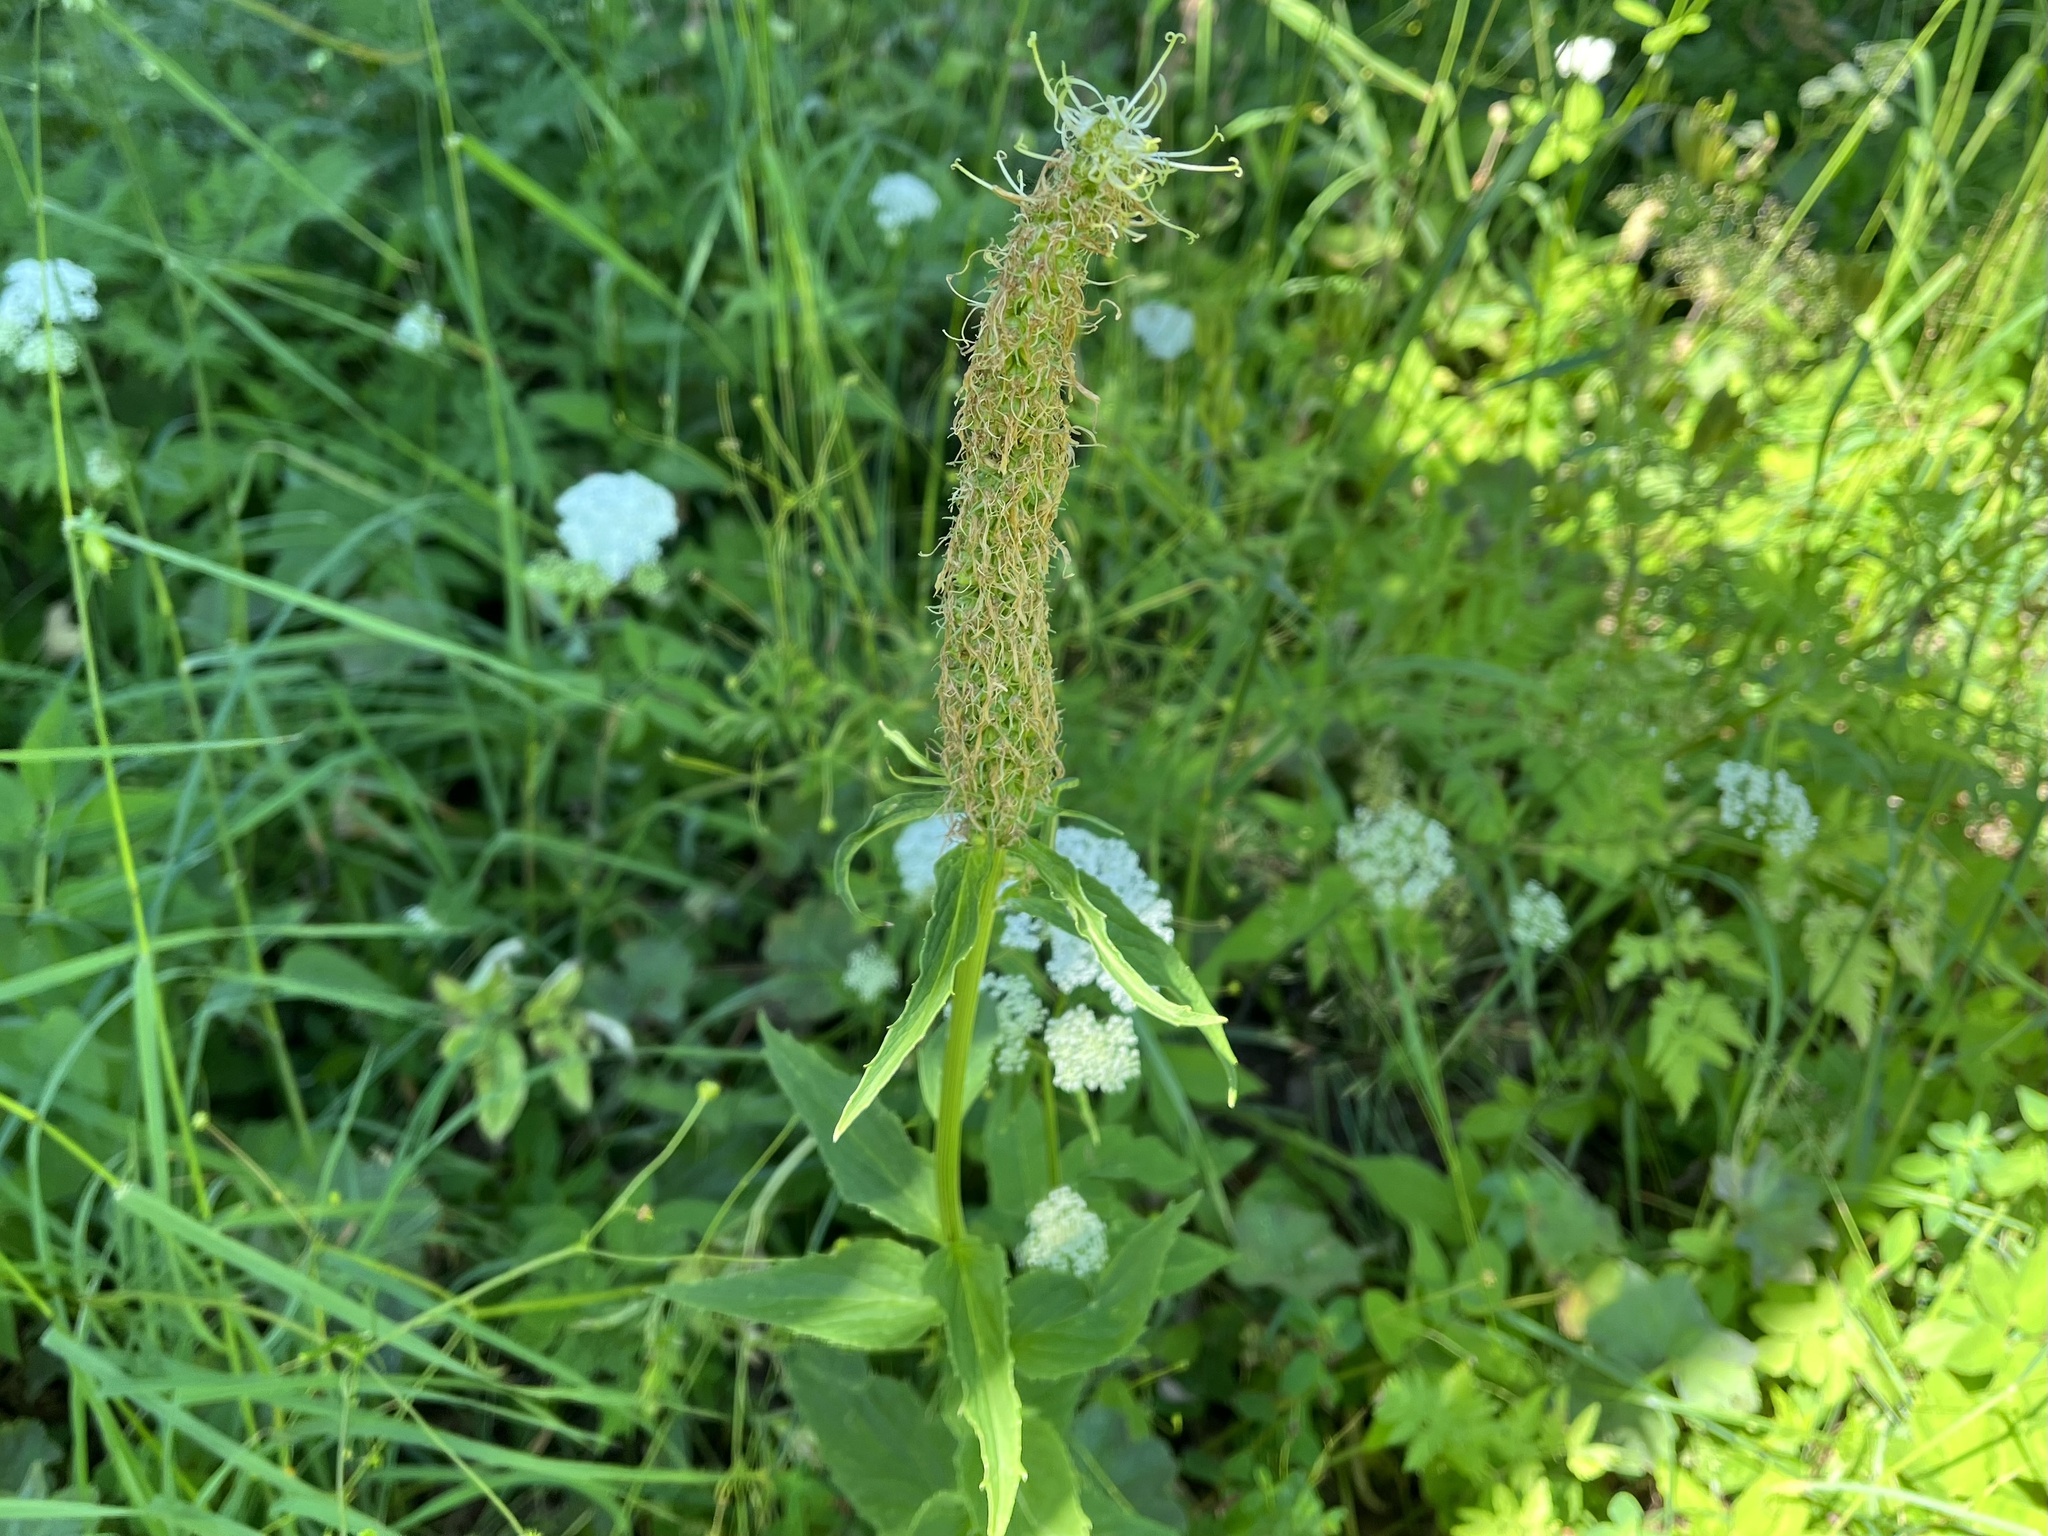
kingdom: Plantae
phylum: Tracheophyta
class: Magnoliopsida
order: Asterales
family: Campanulaceae
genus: Phyteuma
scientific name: Phyteuma spicatum
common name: Spiked rampion
